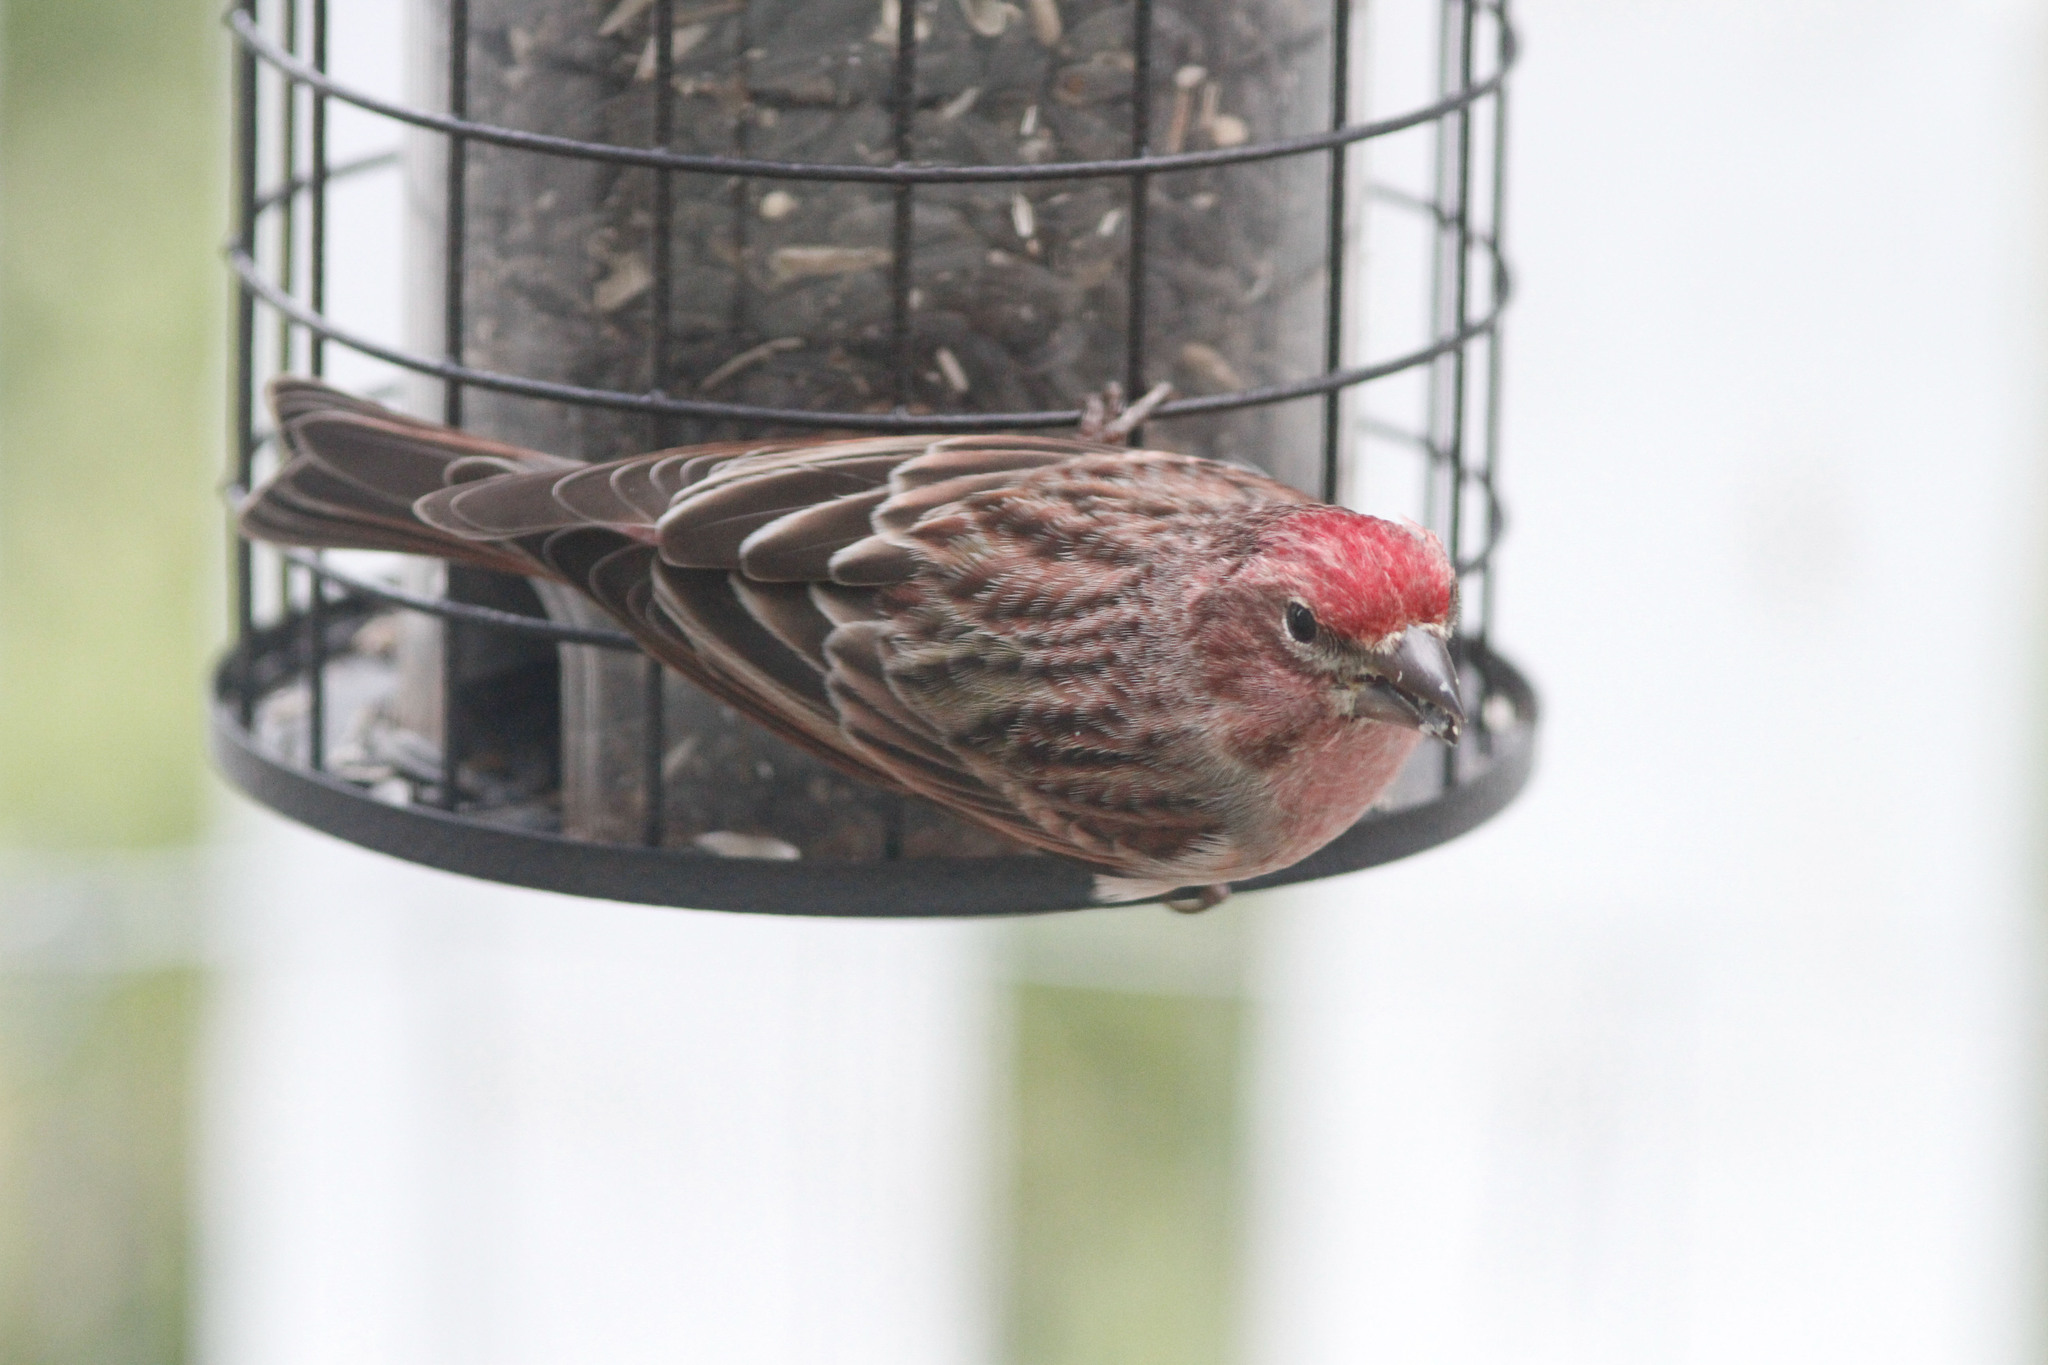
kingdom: Animalia
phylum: Chordata
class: Aves
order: Passeriformes
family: Fringillidae
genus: Haemorhous
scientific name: Haemorhous cassinii
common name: Cassin's finch
